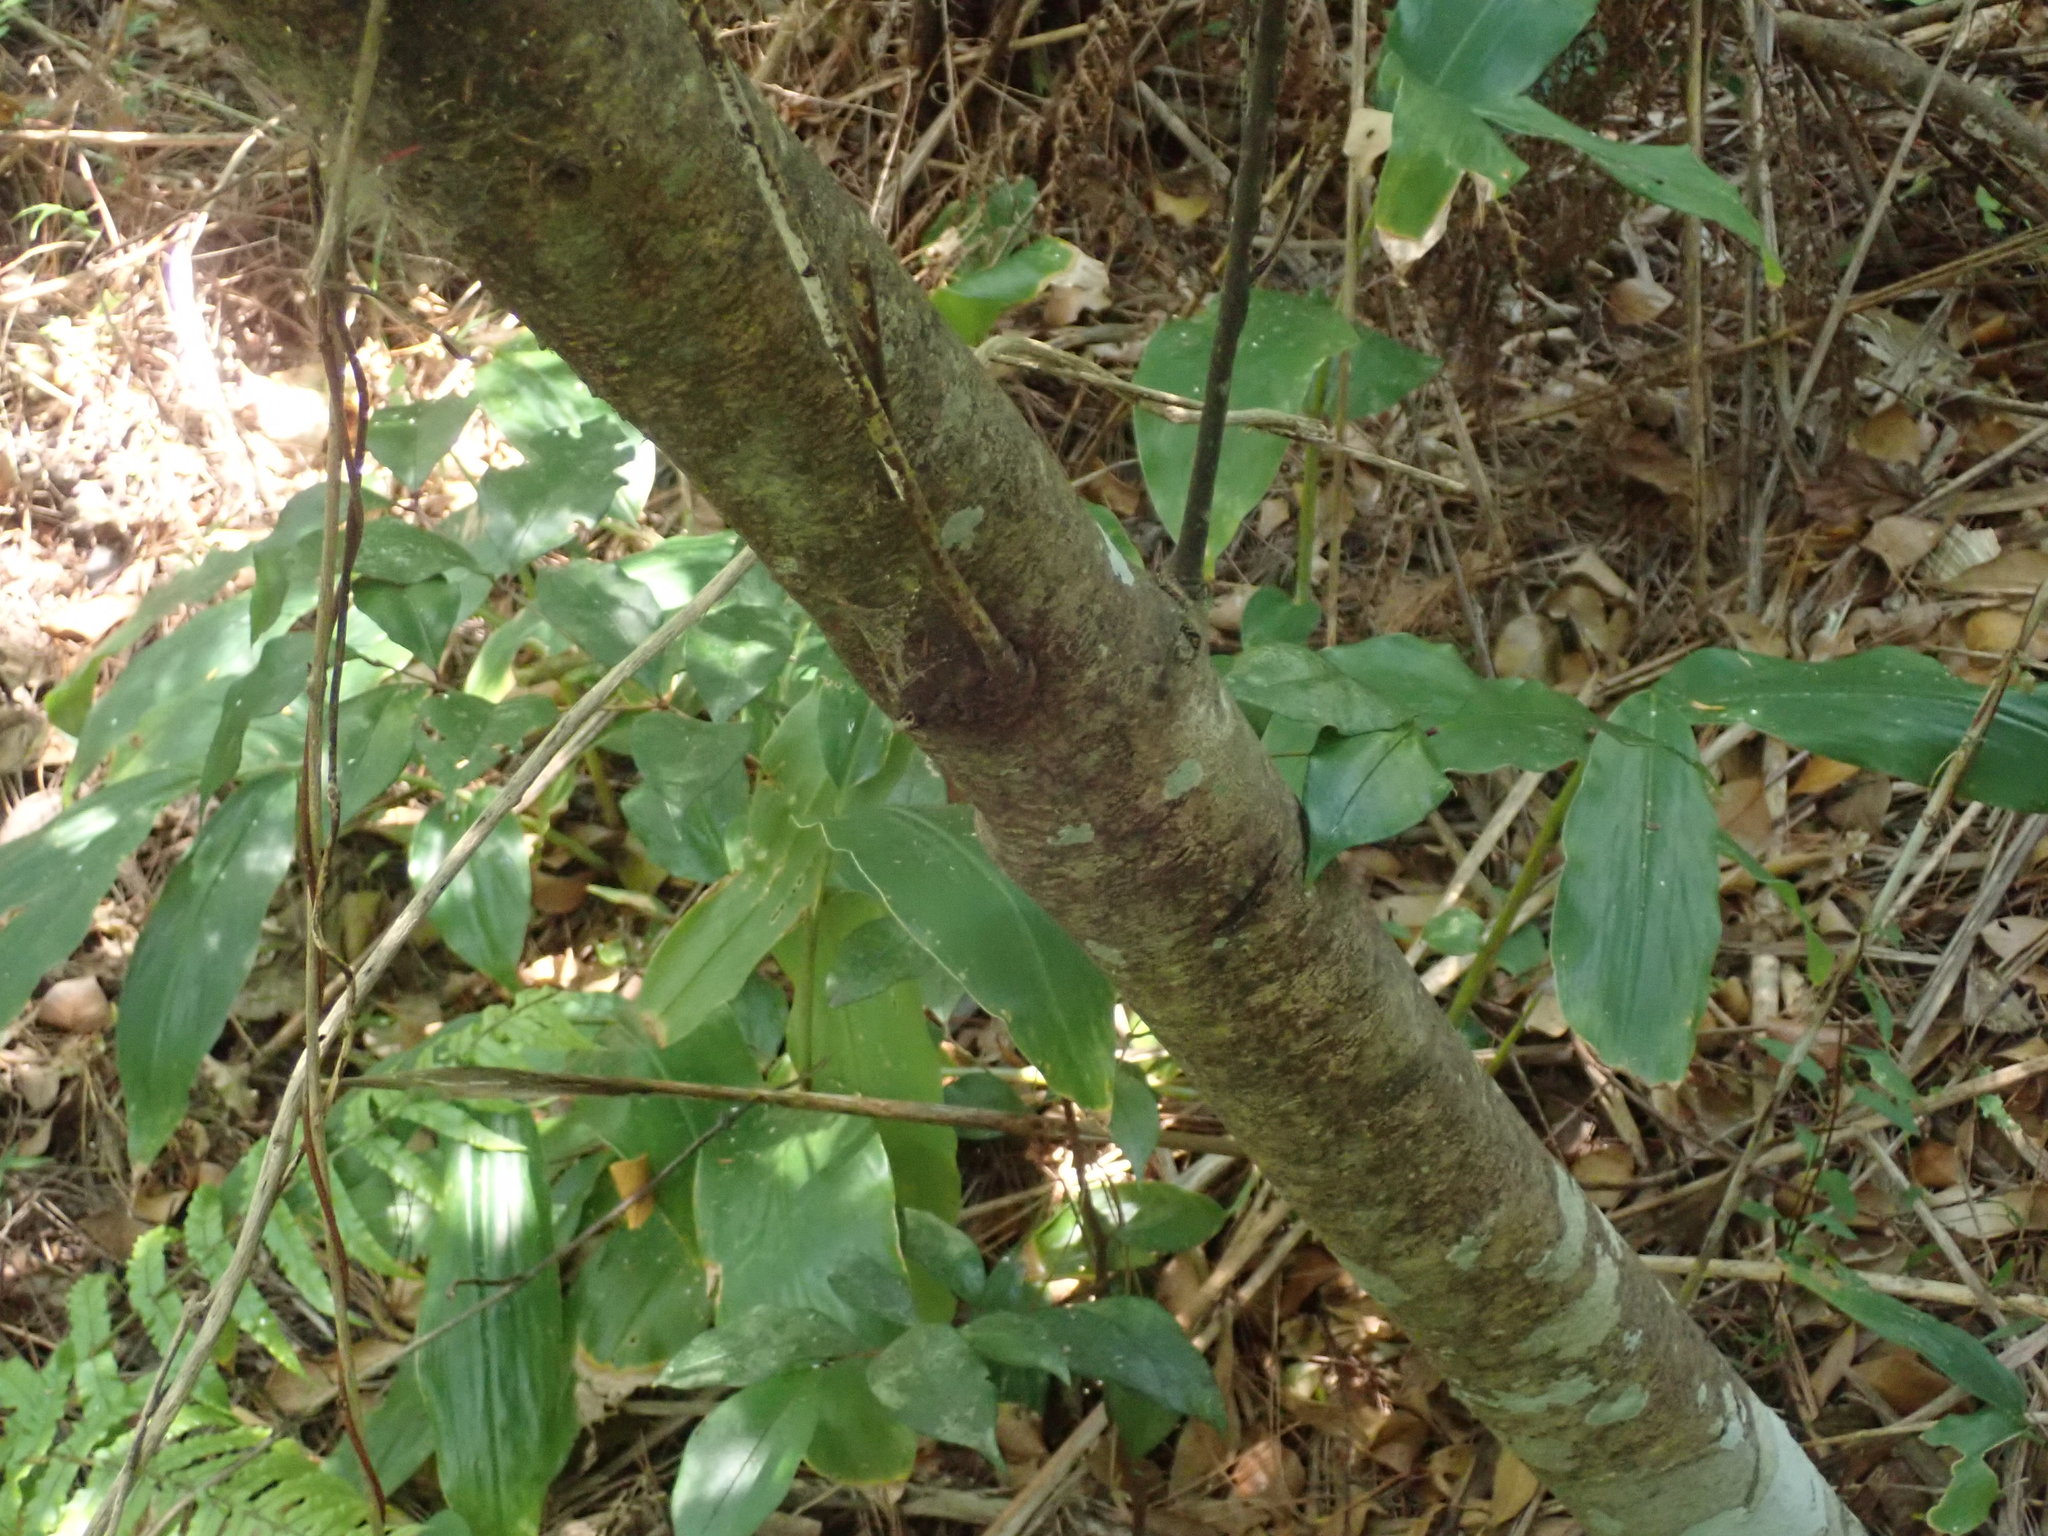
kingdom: Plantae
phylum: Tracheophyta
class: Liliopsida
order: Zingiberales
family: Zingiberaceae
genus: Hedychium
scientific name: Hedychium gardnerianum
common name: Himalayan ginger
